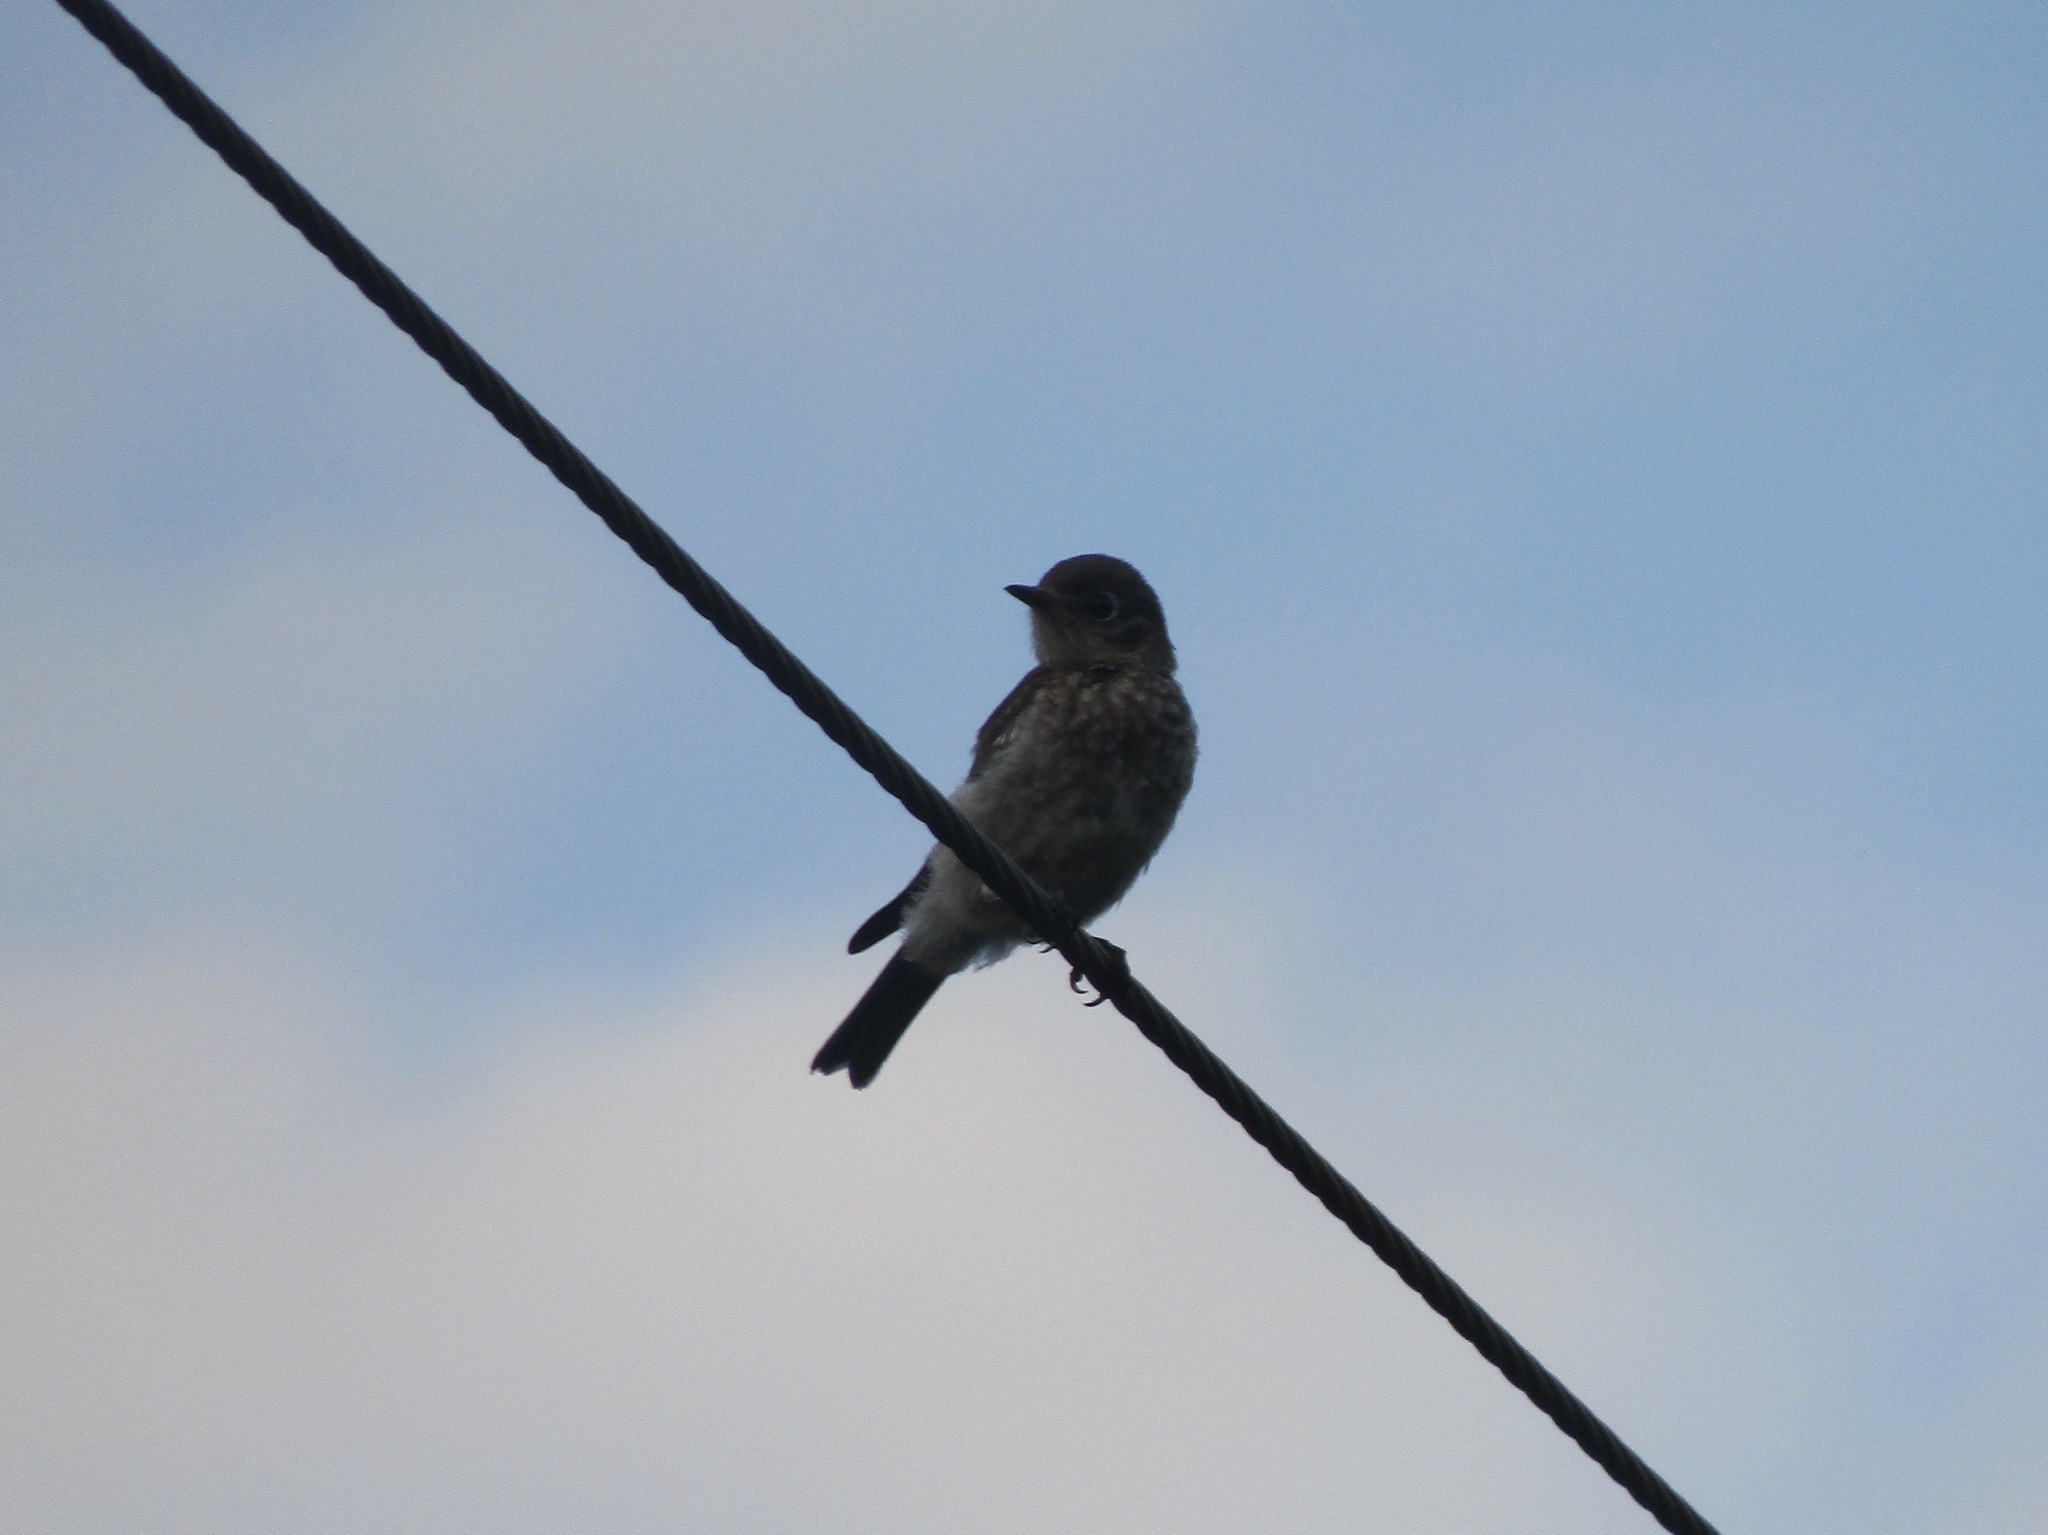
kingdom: Animalia
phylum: Chordata
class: Aves
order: Passeriformes
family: Turdidae
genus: Sialia
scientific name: Sialia sialis
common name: Eastern bluebird
